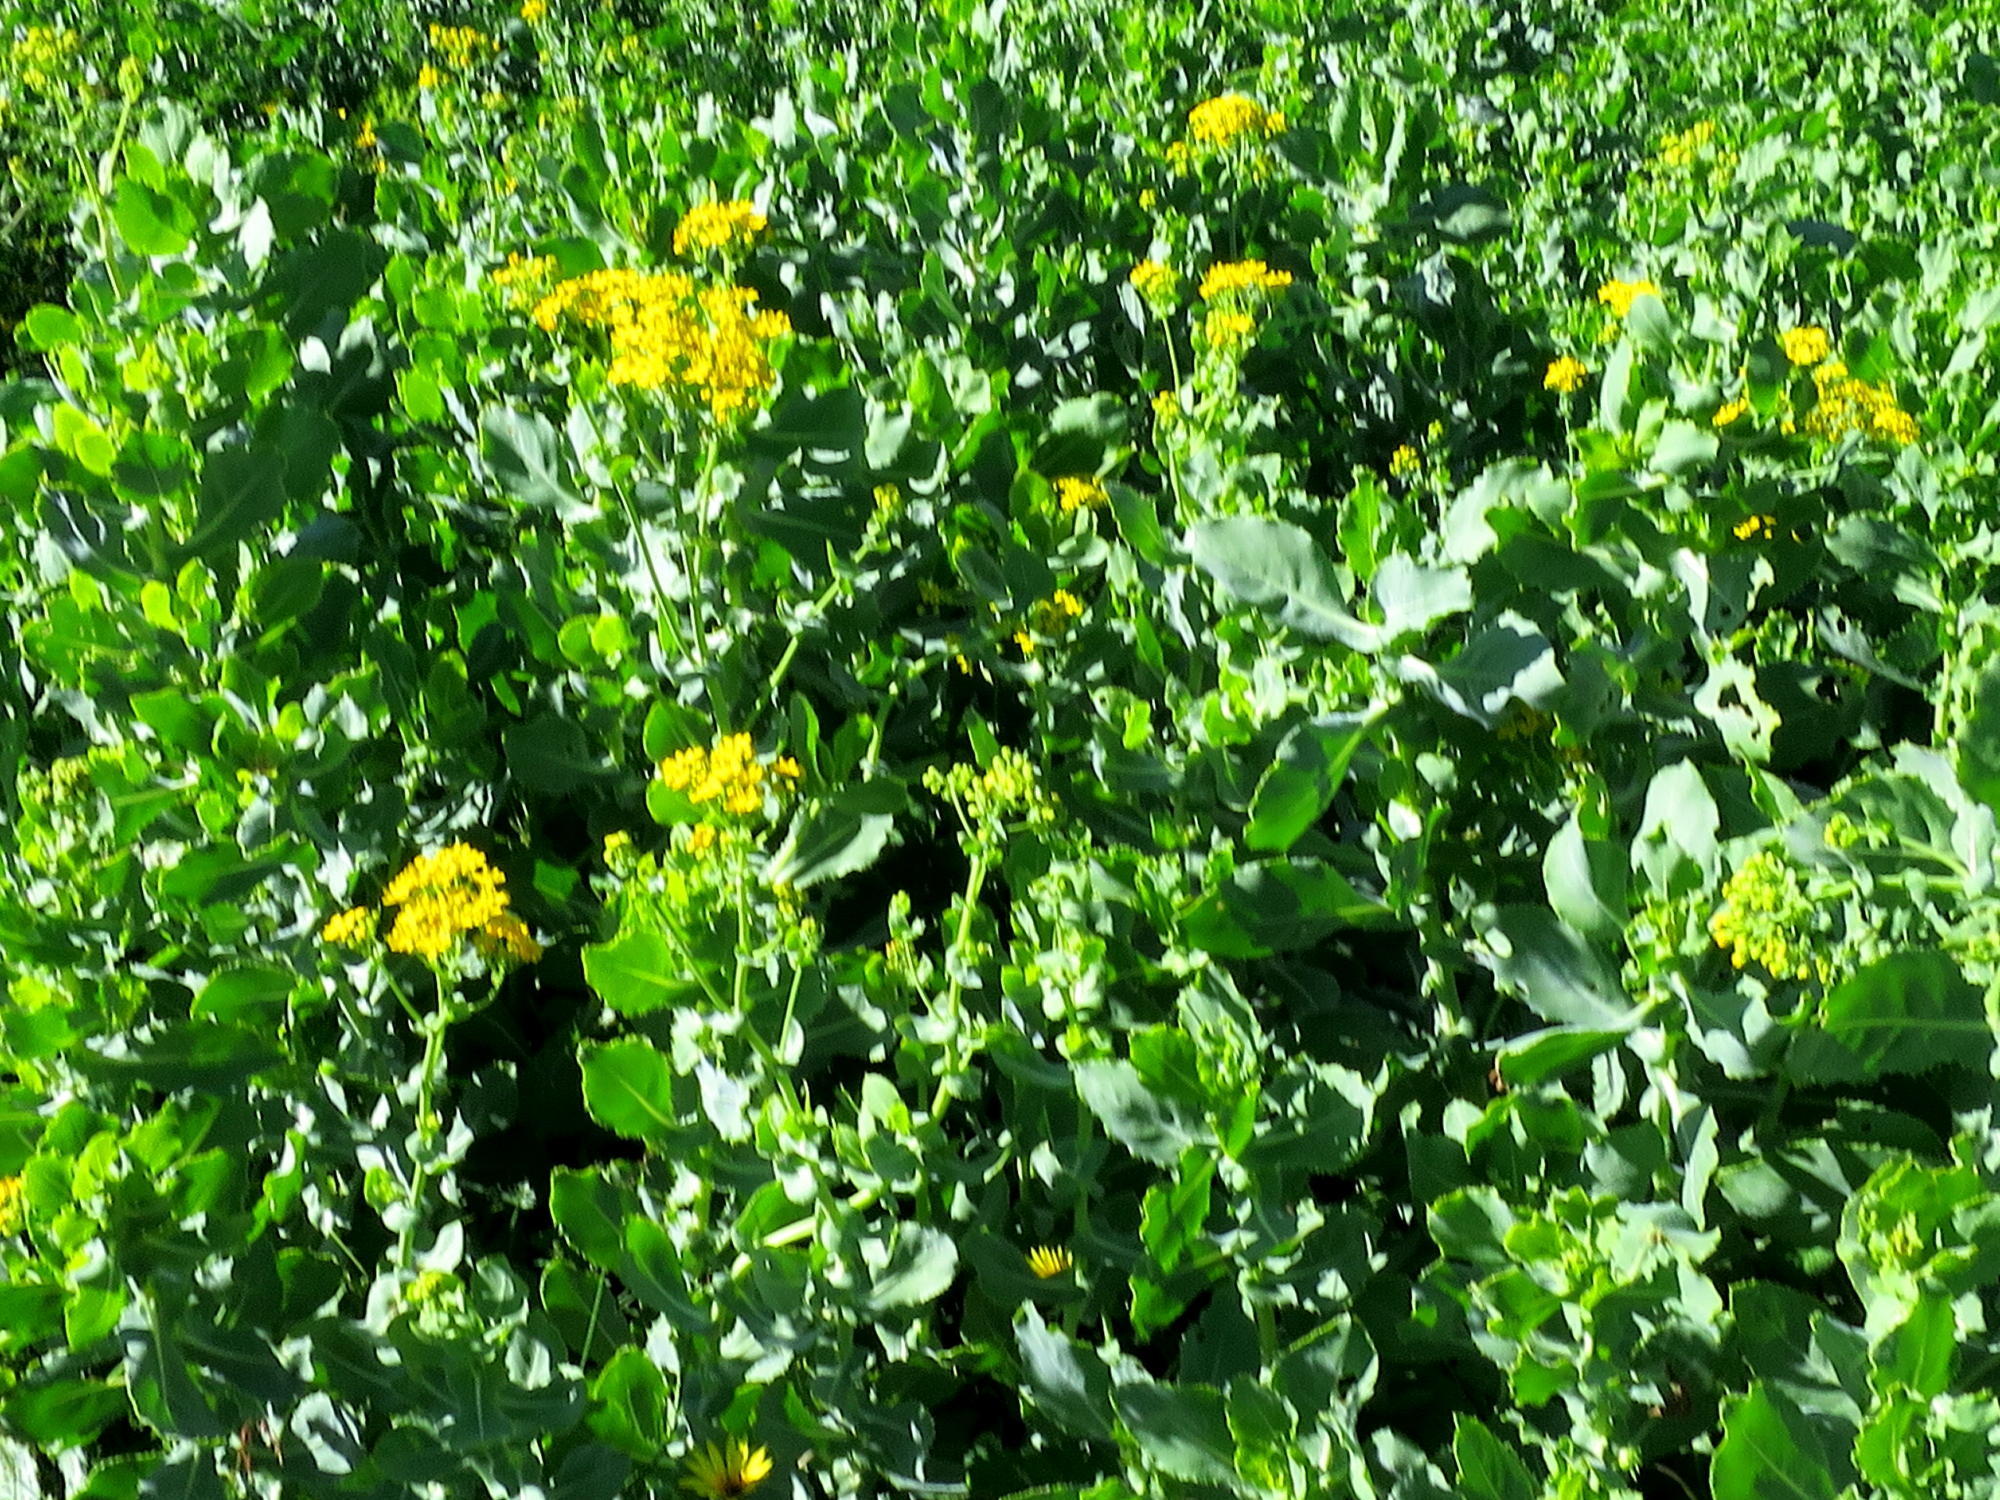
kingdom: Plantae
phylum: Tracheophyta
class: Magnoliopsida
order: Asterales
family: Asteraceae
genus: Othonna
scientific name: Othonna parviflora
